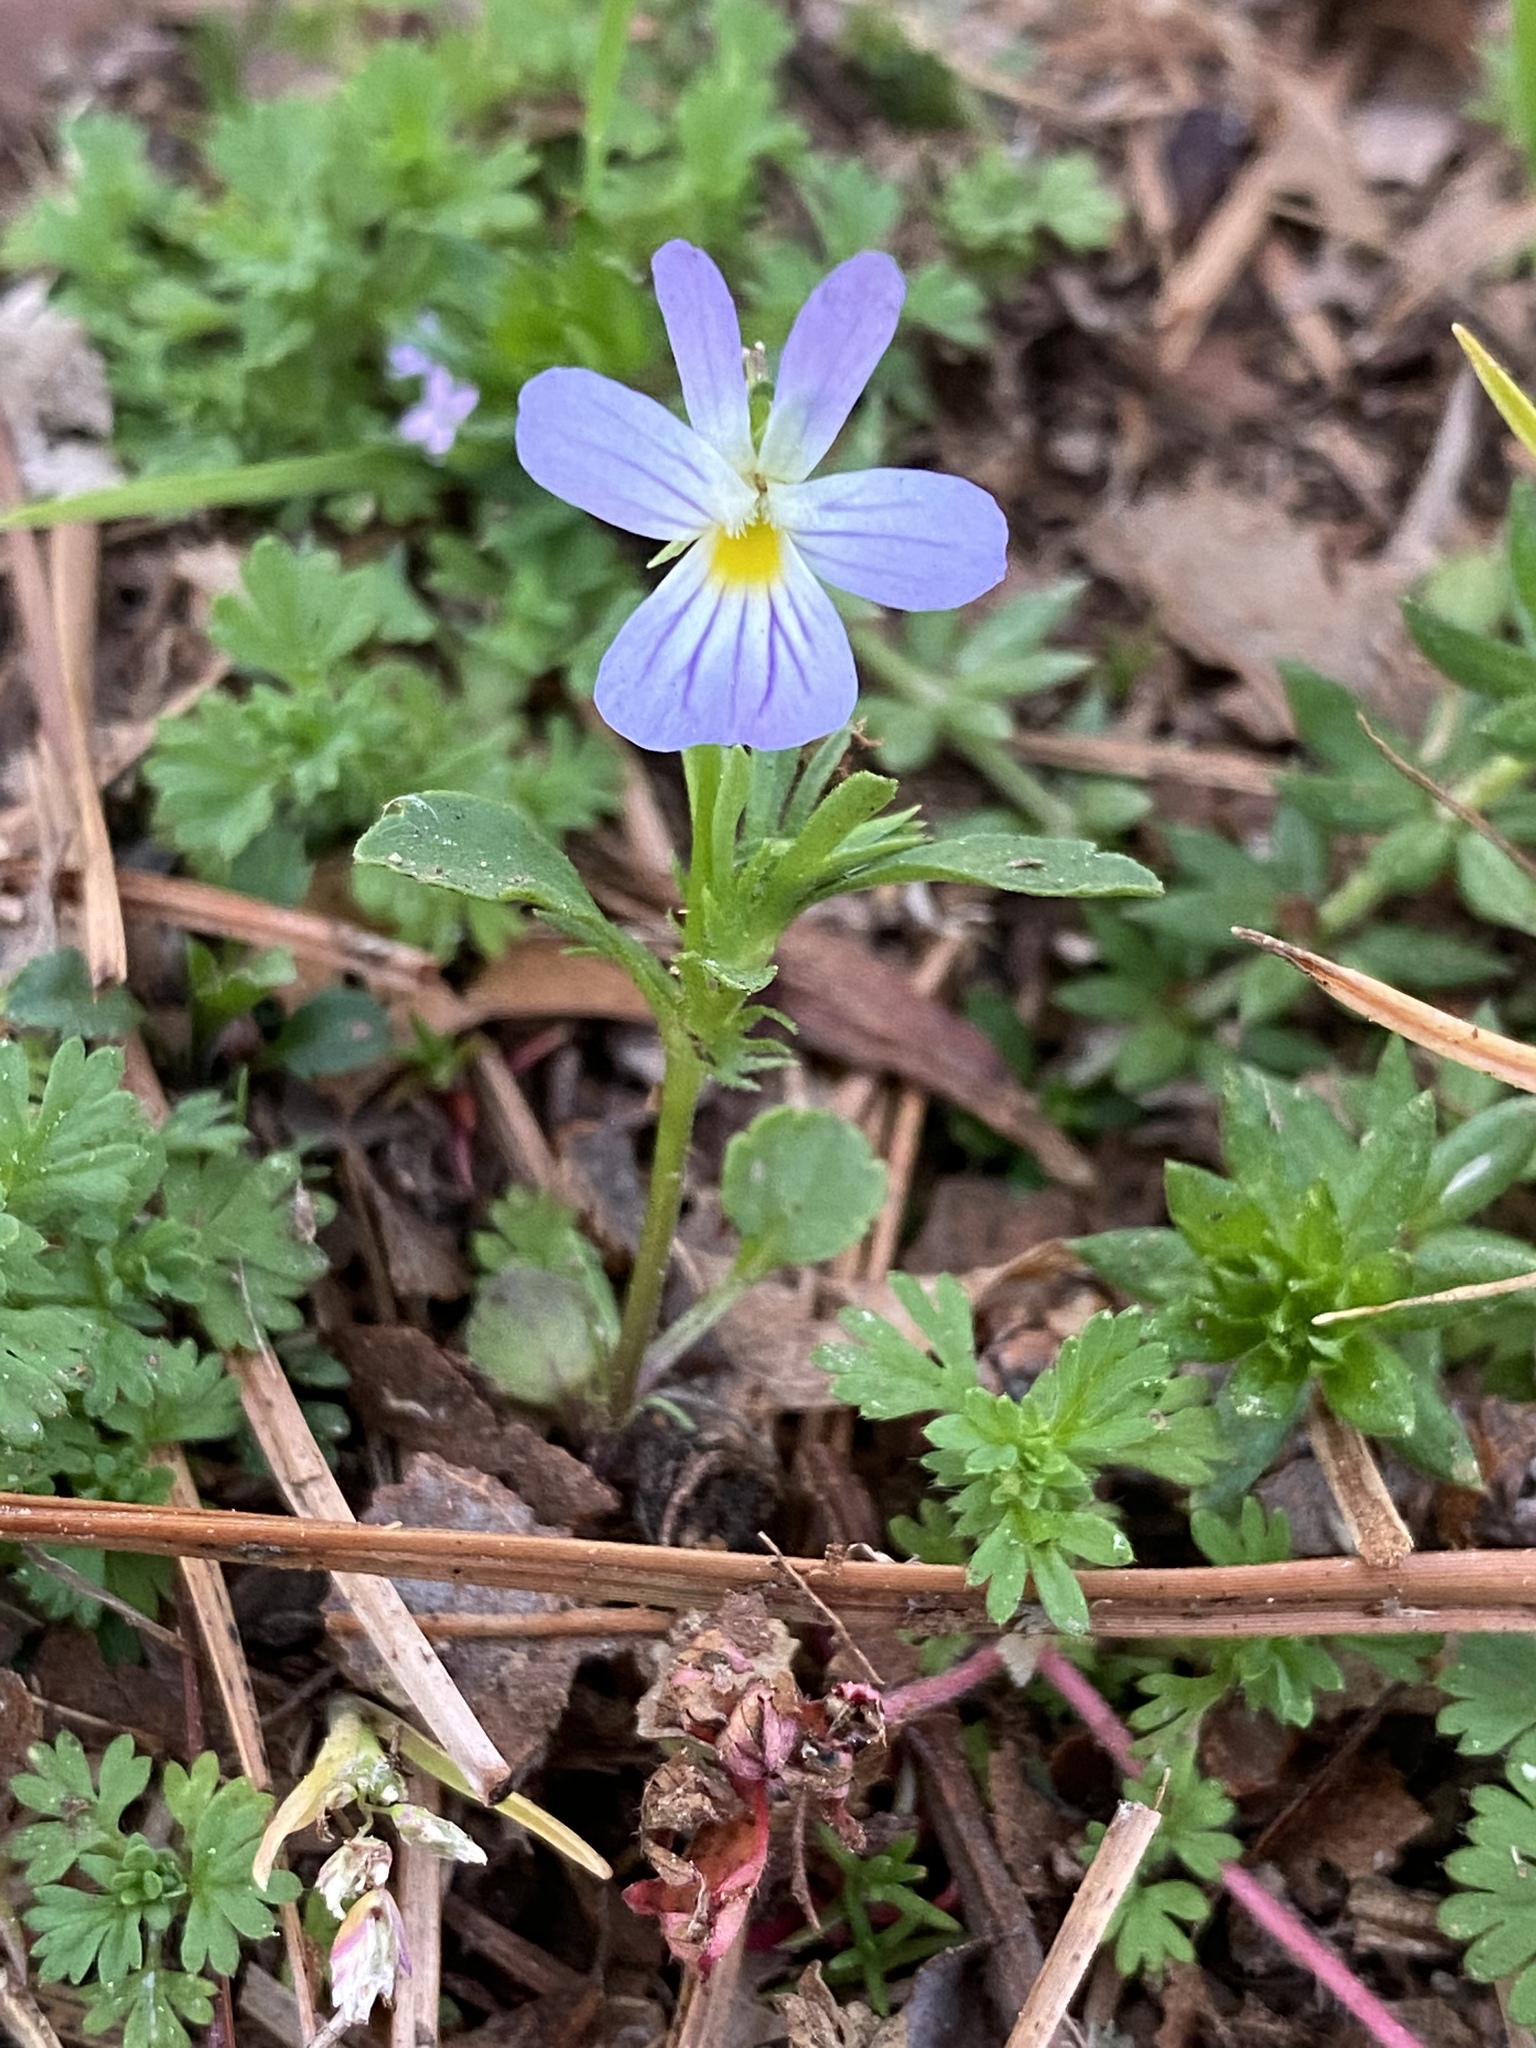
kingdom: Plantae
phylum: Tracheophyta
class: Magnoliopsida
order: Malpighiales
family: Violaceae
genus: Viola
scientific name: Viola rafinesquei
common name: American field pansy
